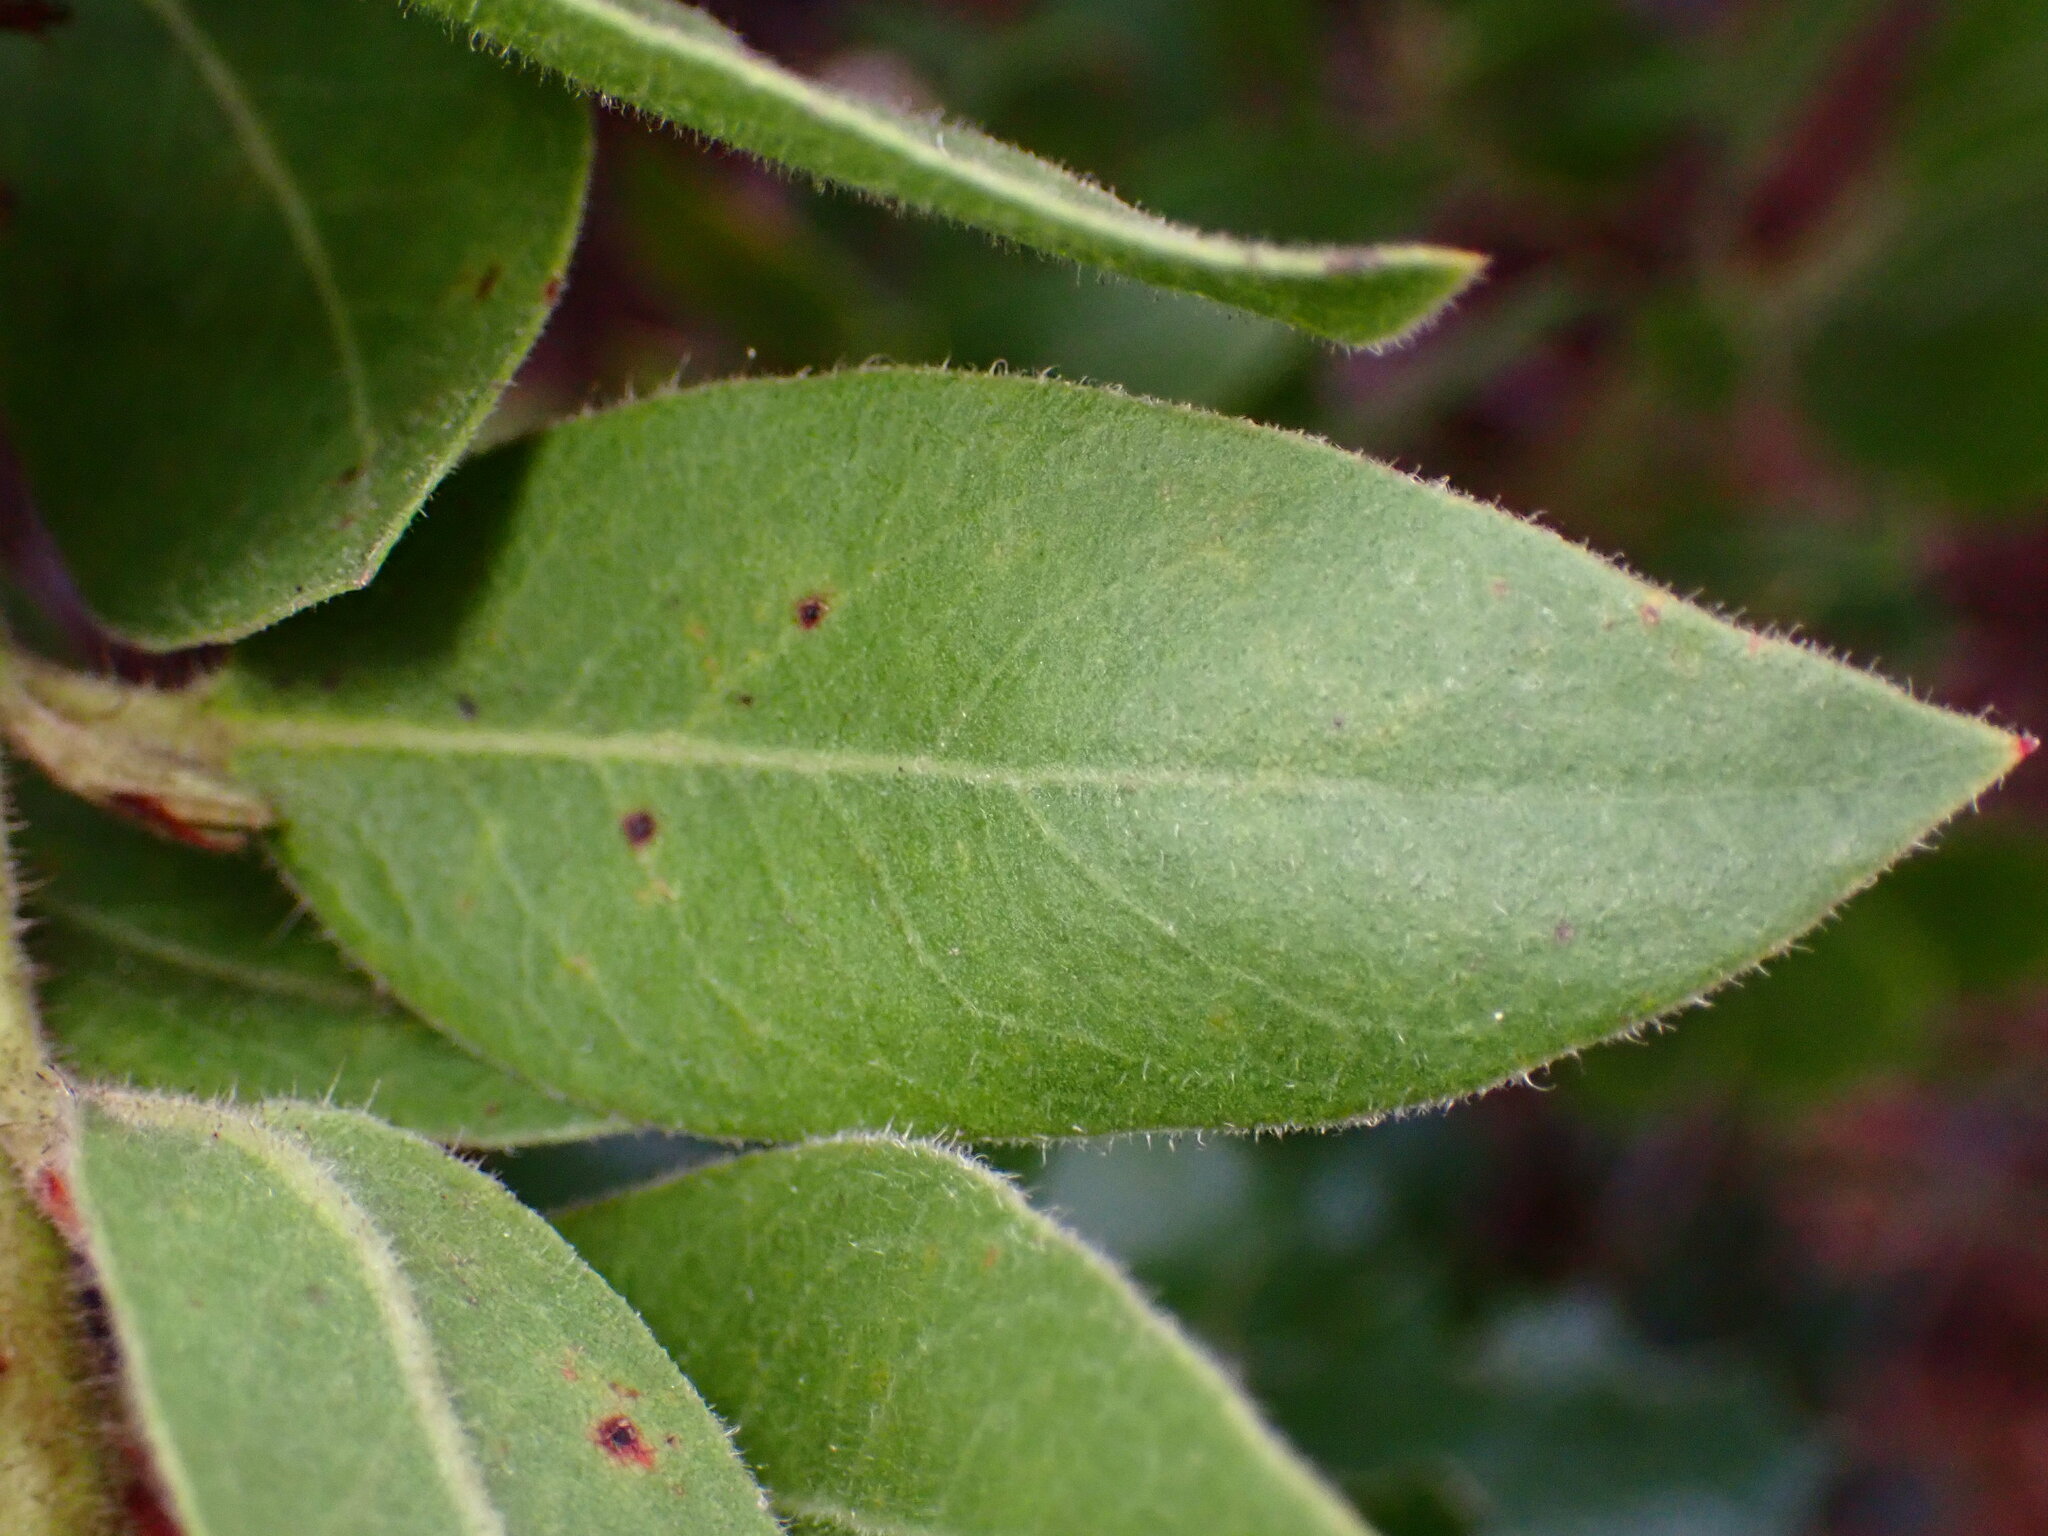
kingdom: Plantae
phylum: Tracheophyta
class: Magnoliopsida
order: Ericales
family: Ericaceae
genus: Arctostaphylos
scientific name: Arctostaphylos virgata
